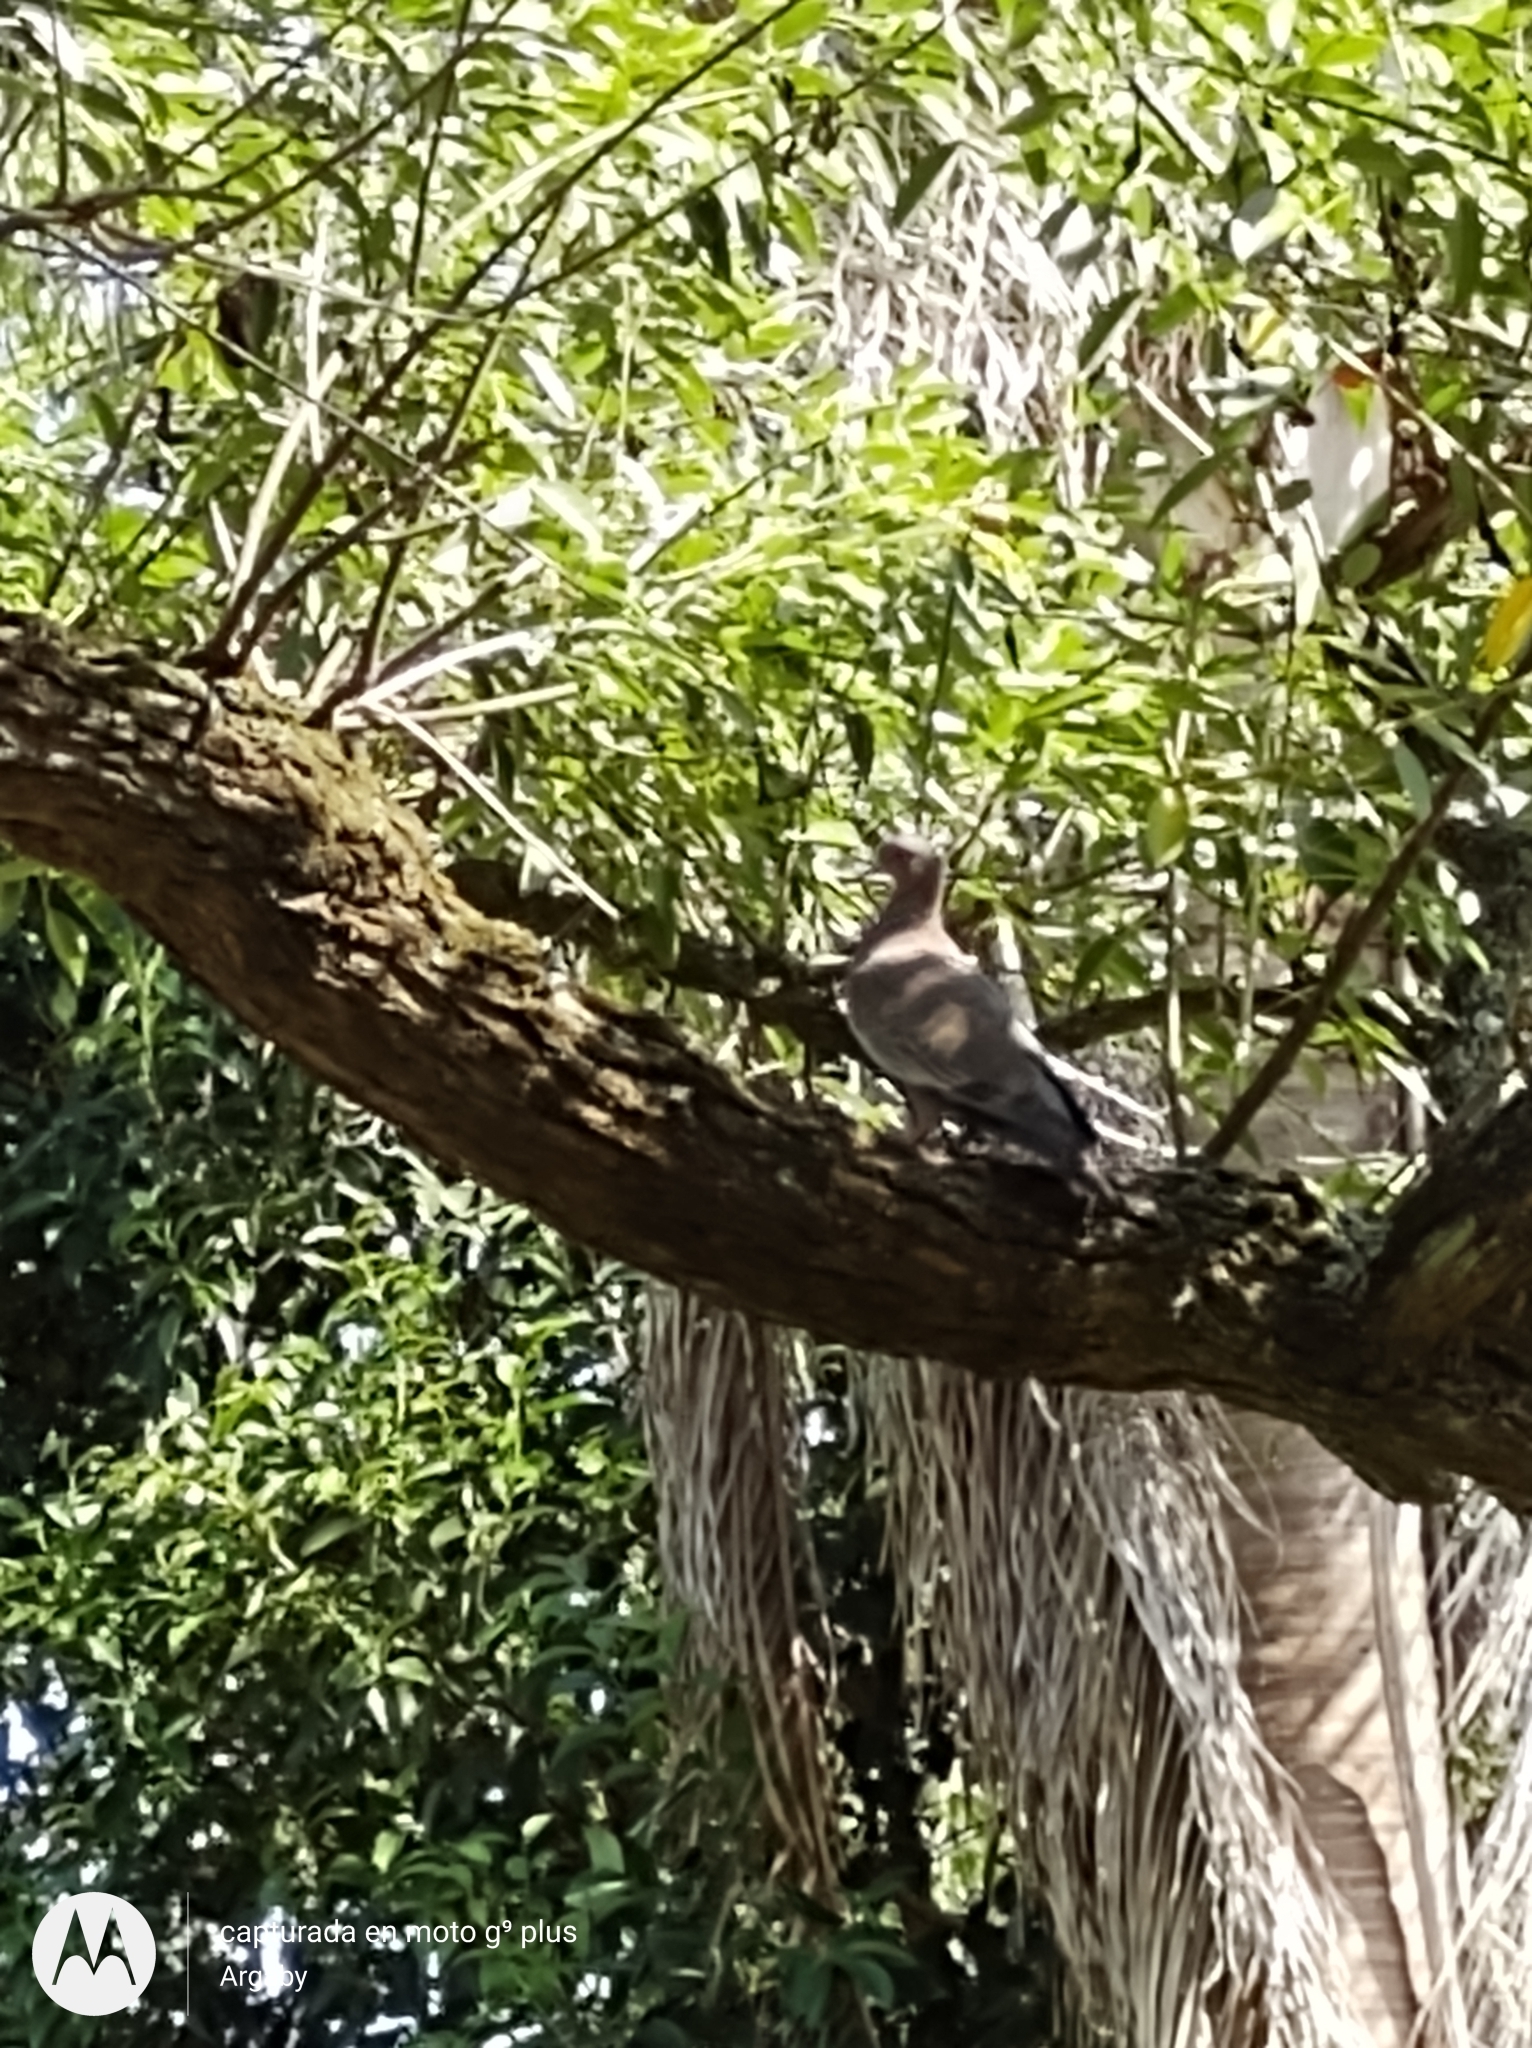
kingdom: Animalia
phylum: Chordata
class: Aves
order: Columbiformes
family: Columbidae
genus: Patagioenas
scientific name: Patagioenas picazuro
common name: Picazuro pigeon
